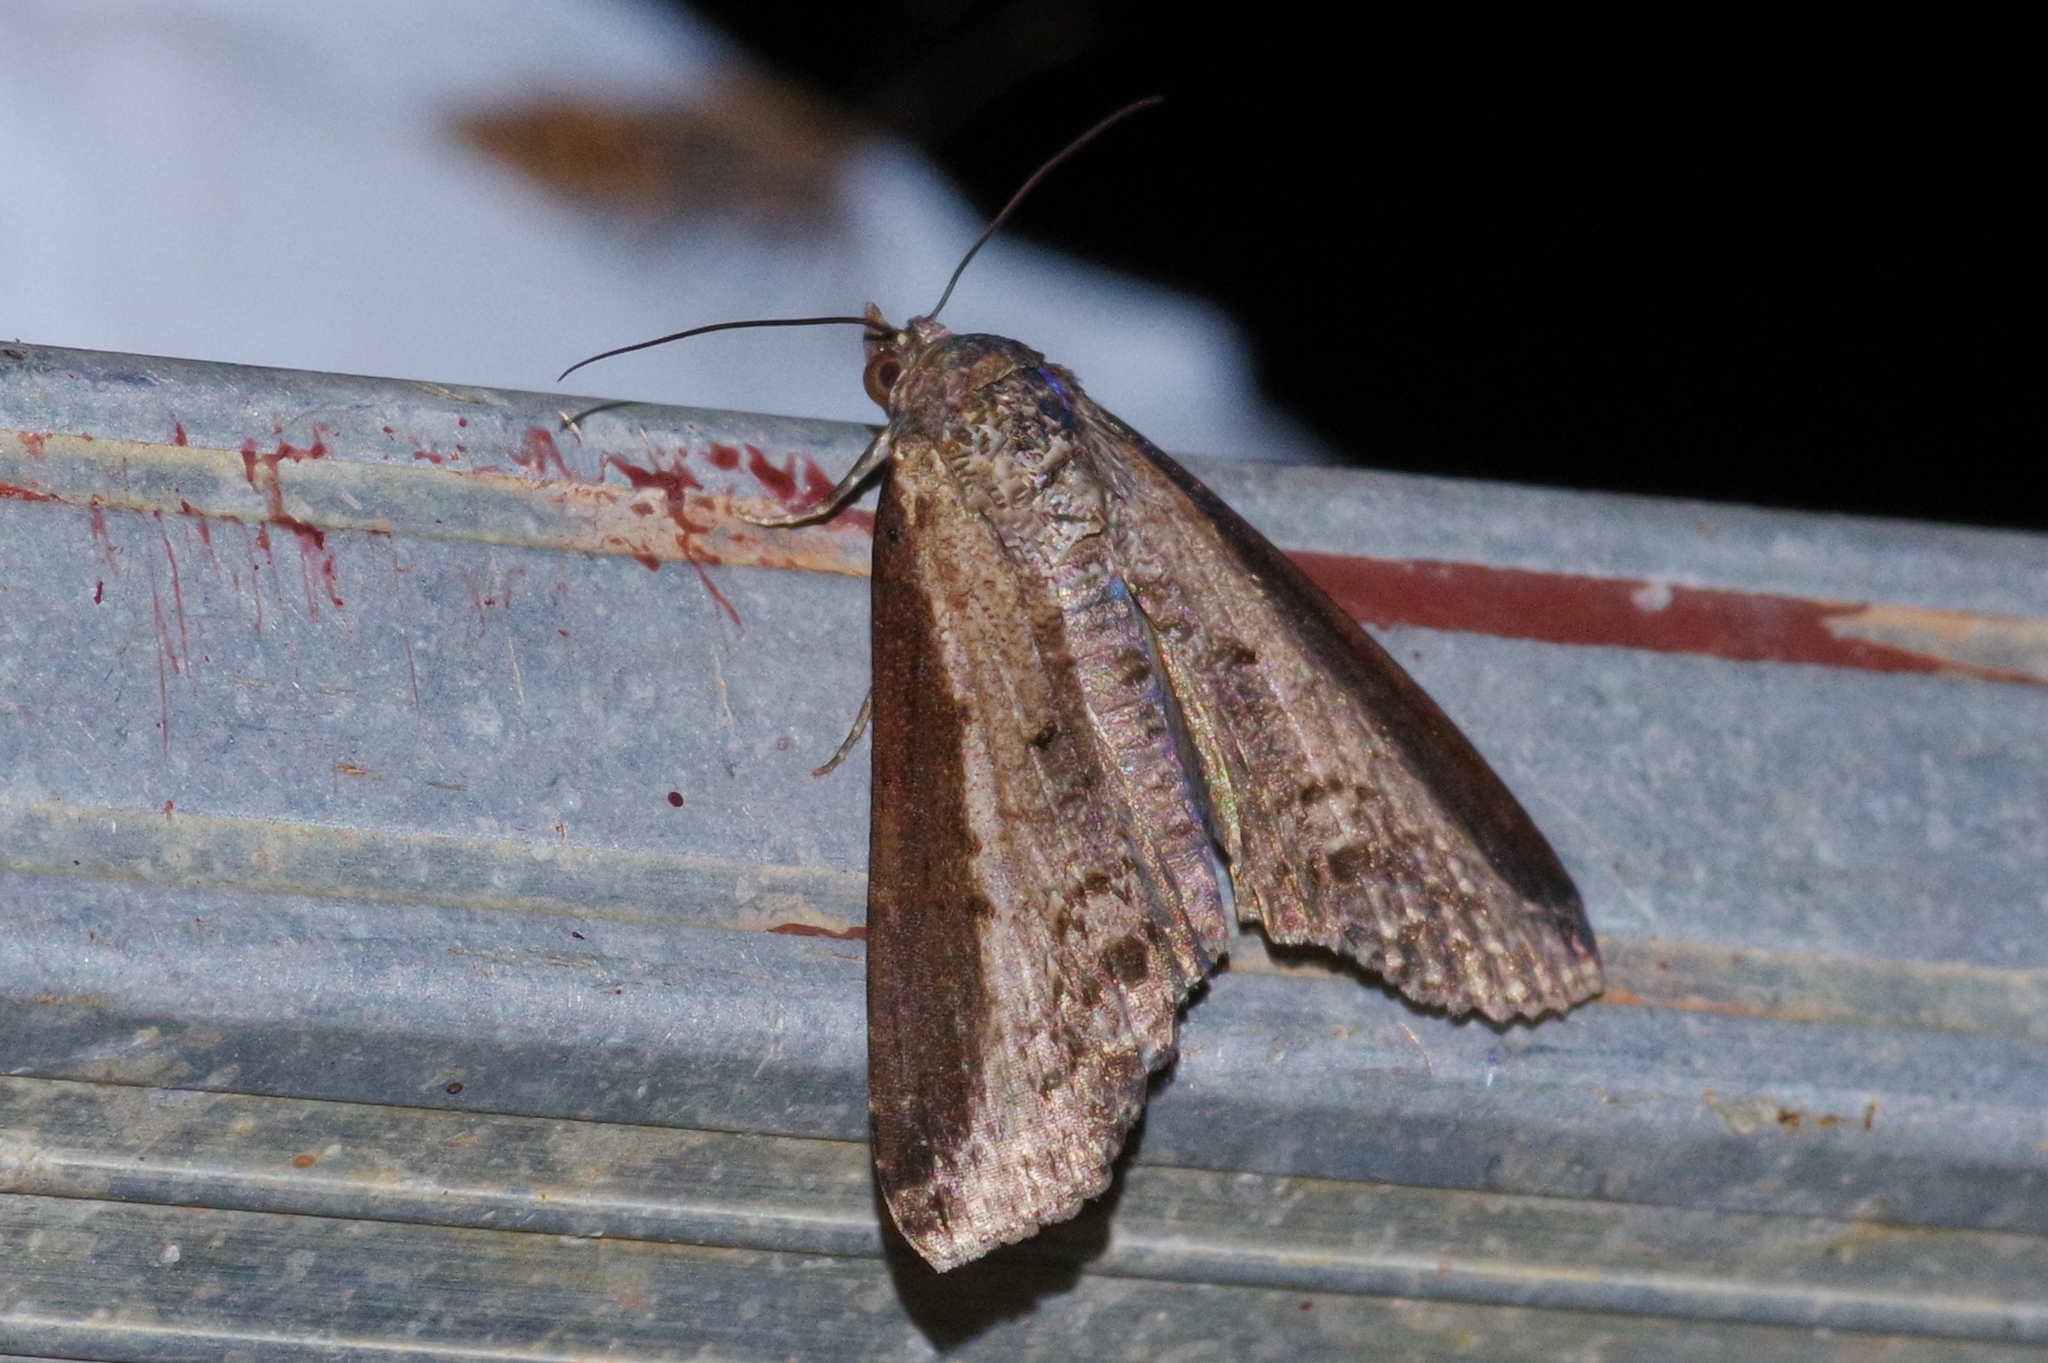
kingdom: Animalia
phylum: Arthropoda
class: Insecta
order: Lepidoptera
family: Euteliidae
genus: Lophoptera
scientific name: Lophoptera squammigera
